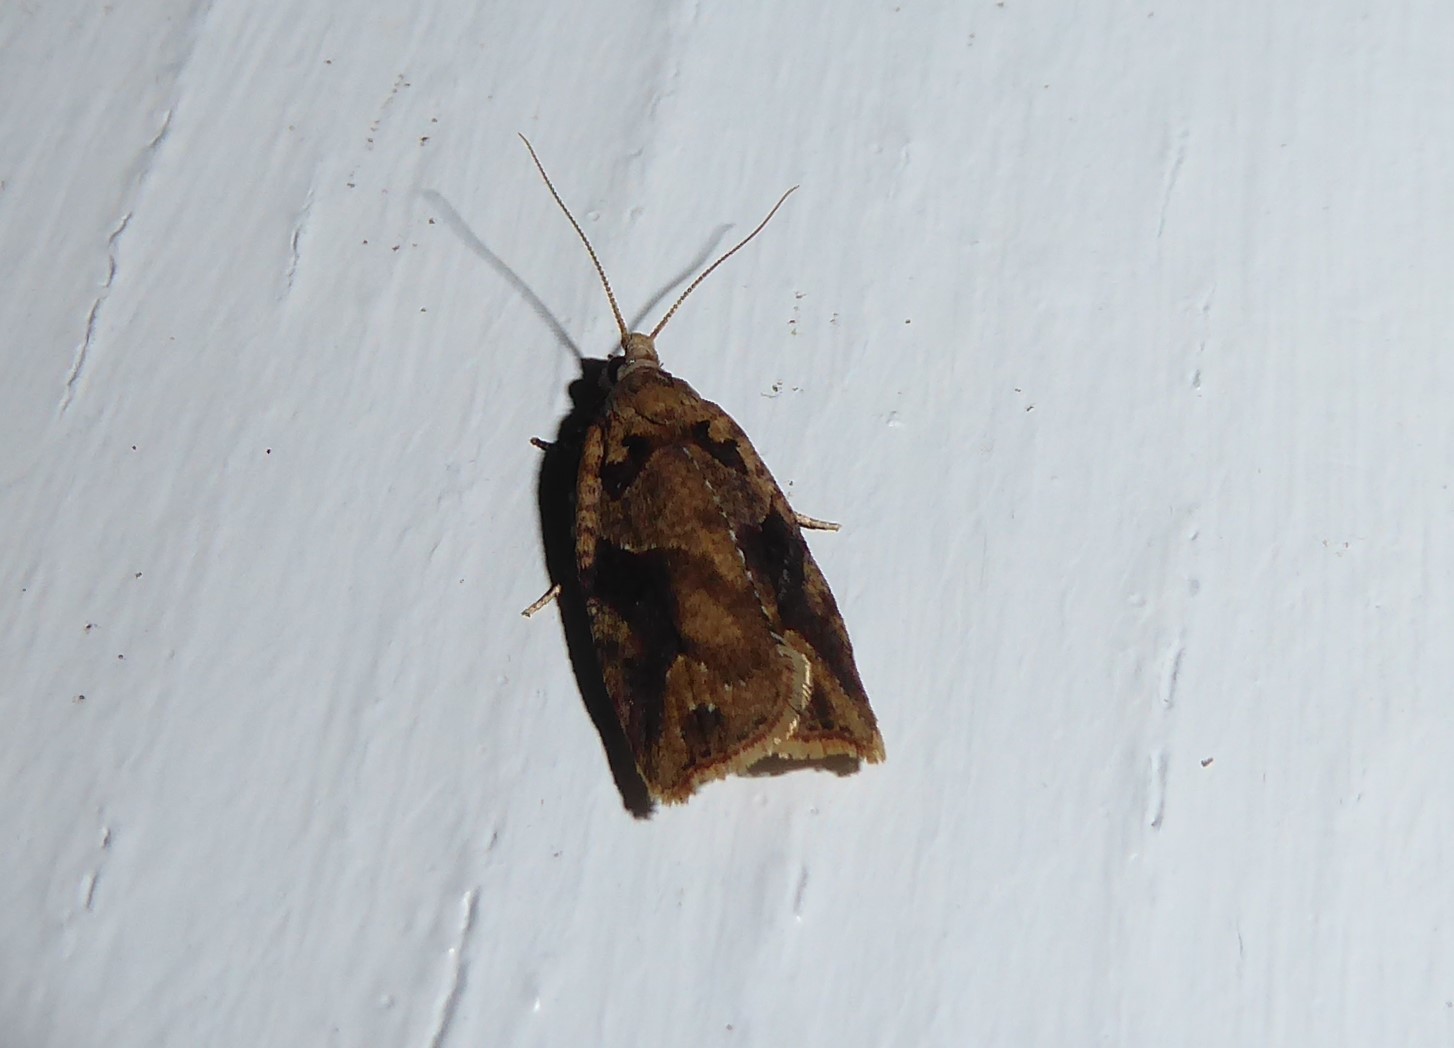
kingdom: Animalia
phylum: Arthropoda
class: Insecta
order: Lepidoptera
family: Tortricidae
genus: Ctenopseustis
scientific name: Ctenopseustis obliquana
